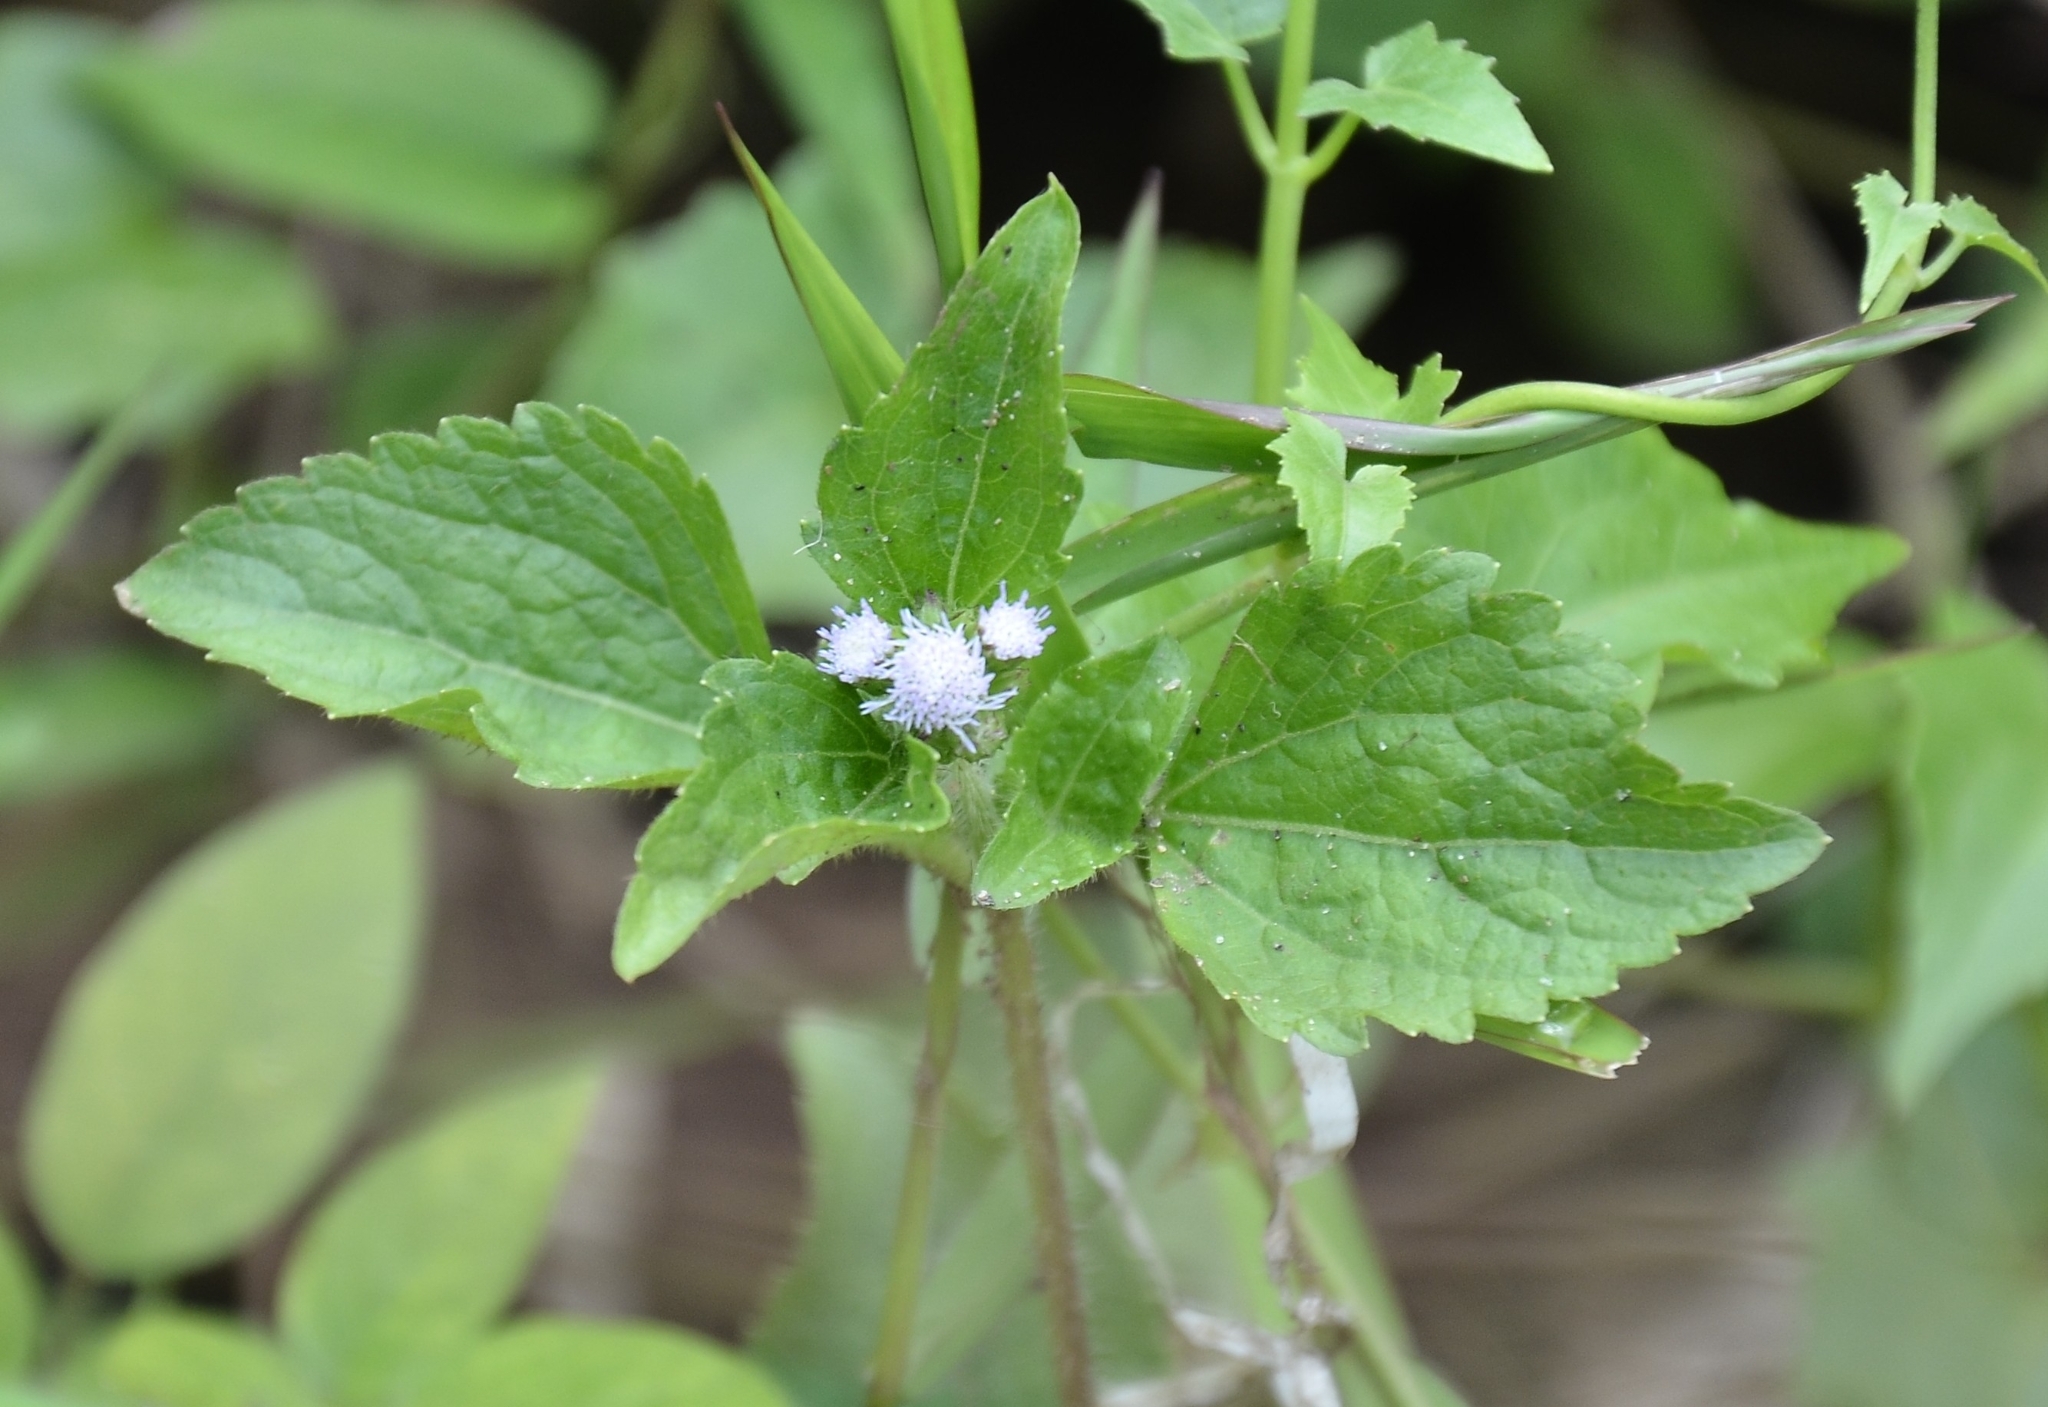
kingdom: Plantae
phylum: Tracheophyta
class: Magnoliopsida
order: Asterales
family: Asteraceae
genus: Ageratum
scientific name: Ageratum conyzoides
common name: Tropical whiteweed
